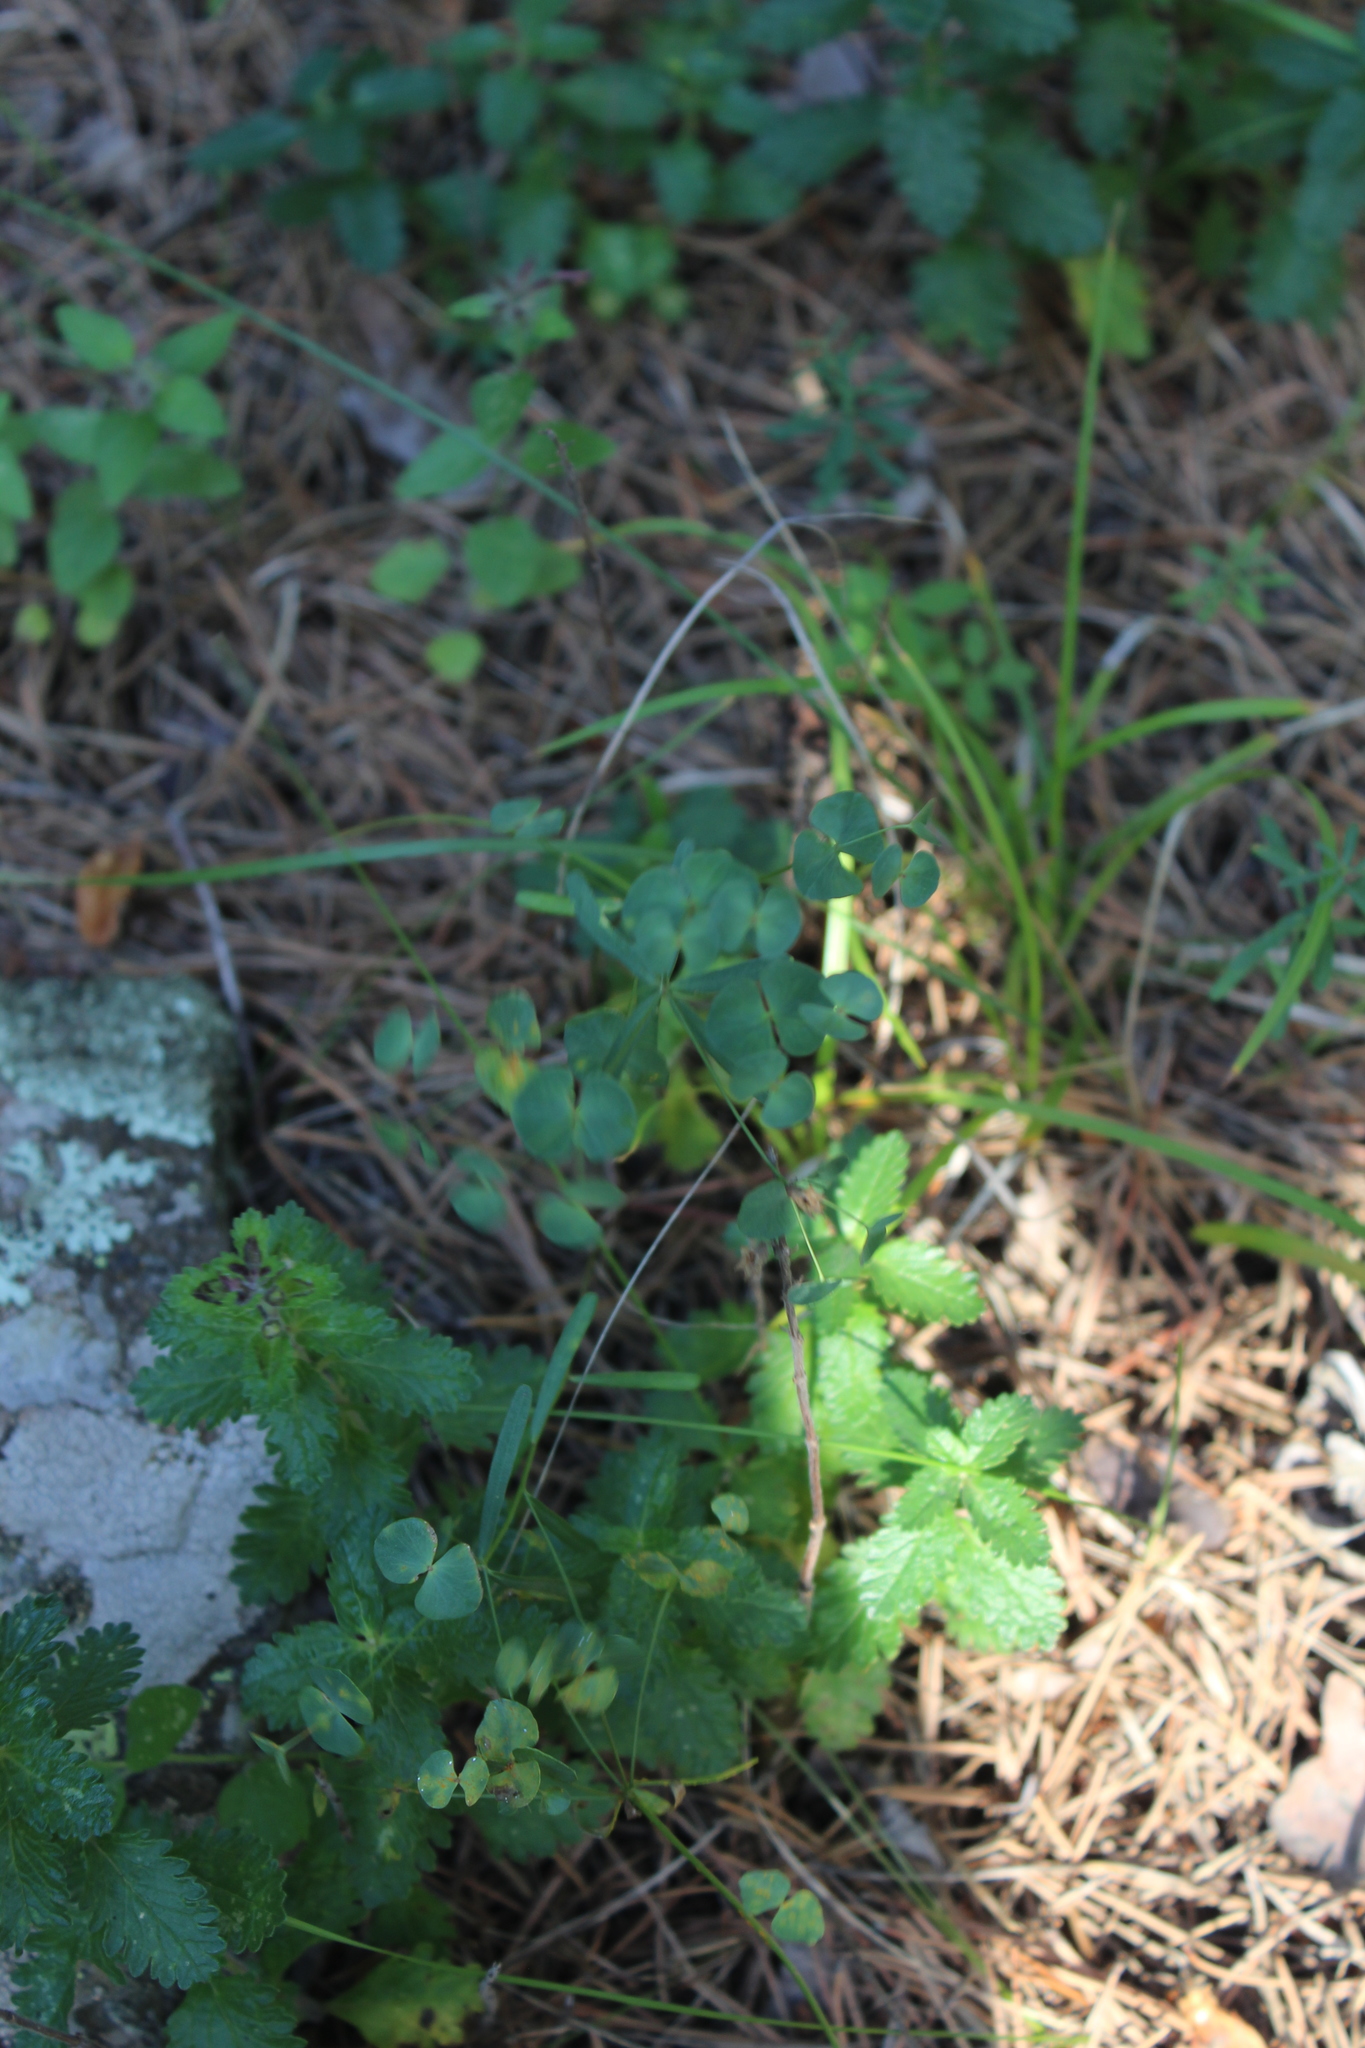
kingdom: Plantae
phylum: Tracheophyta
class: Magnoliopsida
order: Malpighiales
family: Euphorbiaceae
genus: Euphorbia
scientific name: Euphorbia leptocaula
